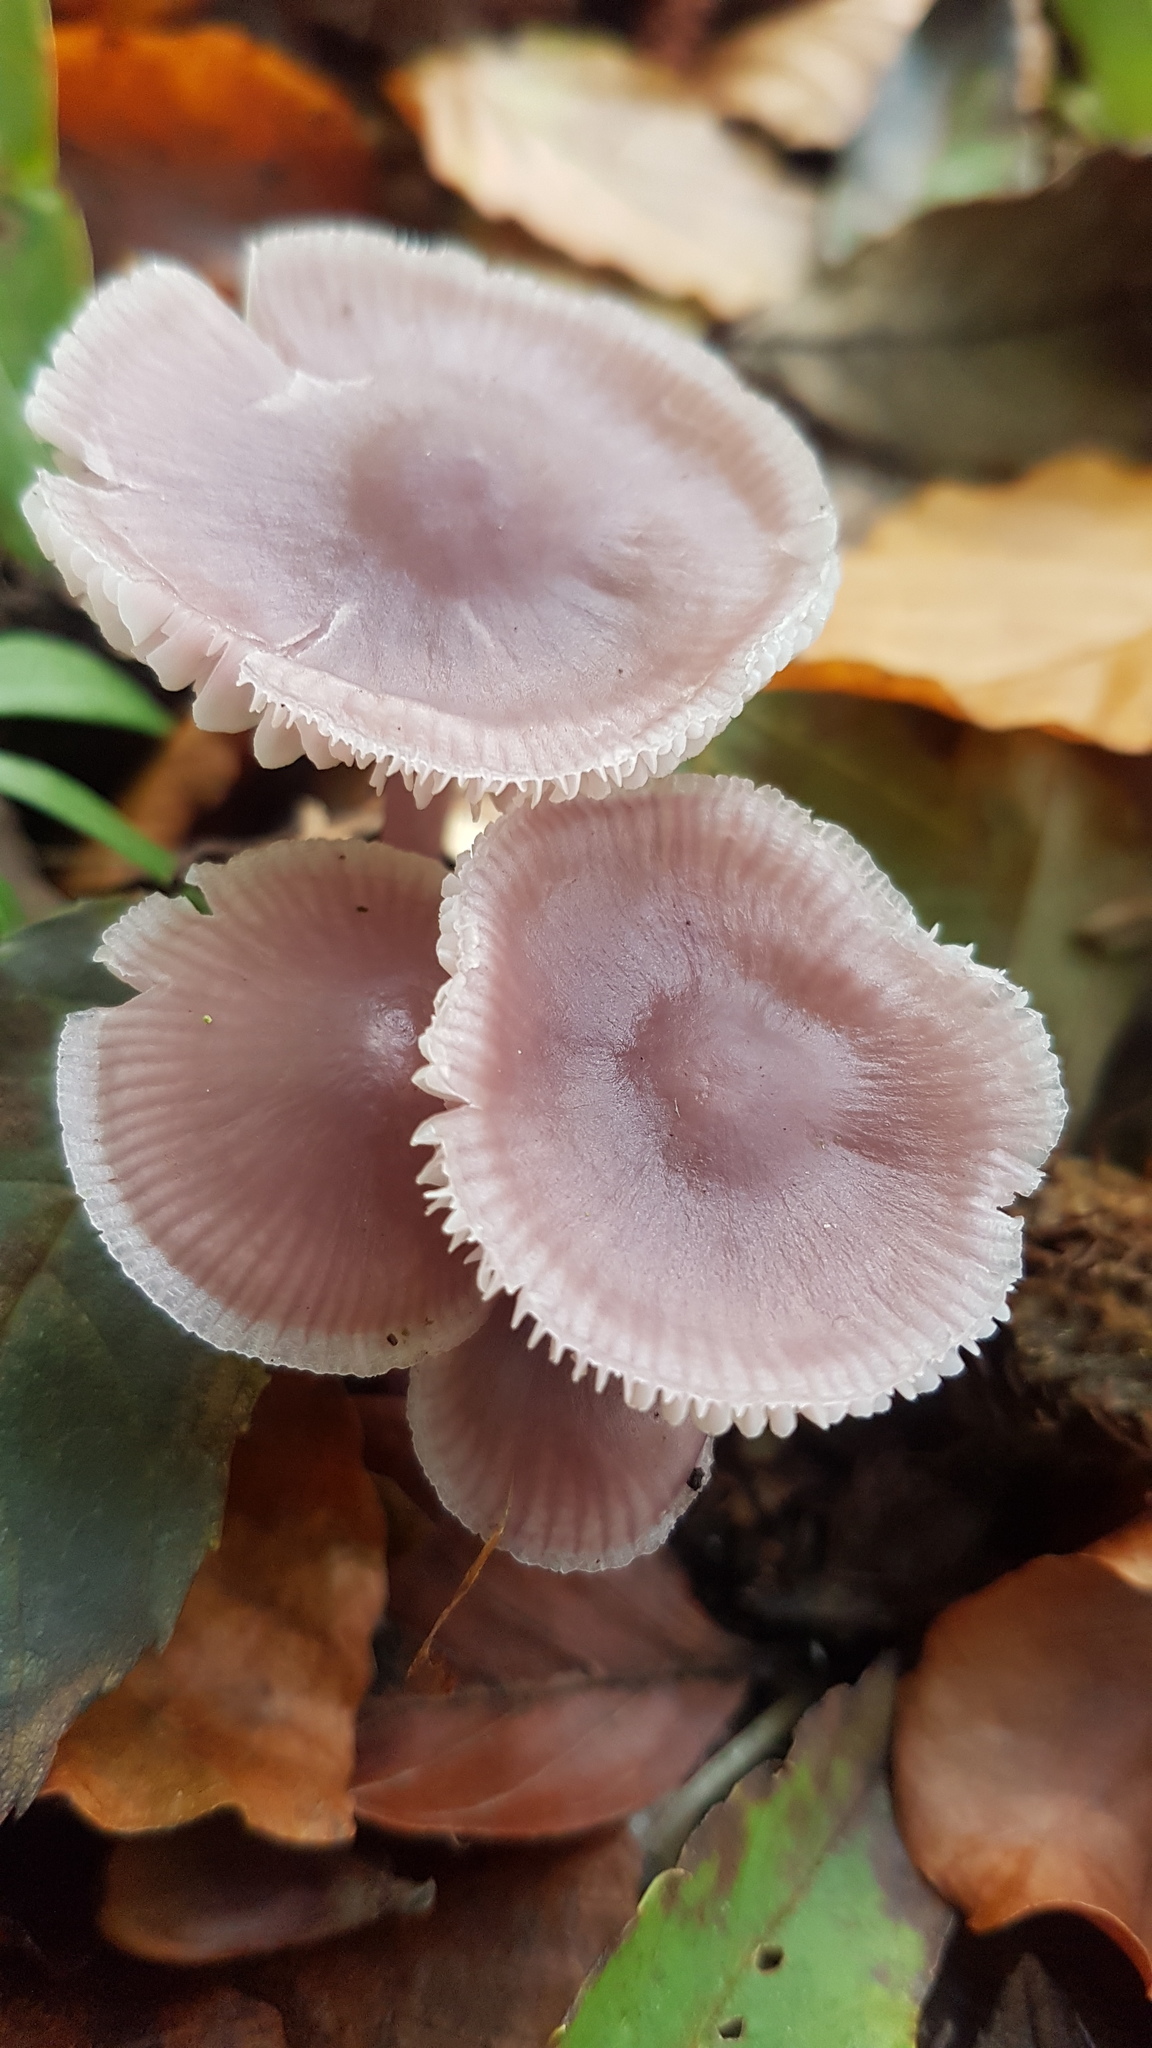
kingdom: Fungi
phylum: Basidiomycota
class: Agaricomycetes
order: Agaricales
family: Mycenaceae
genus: Mycena
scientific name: Mycena rosea
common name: Rosy bonnet
